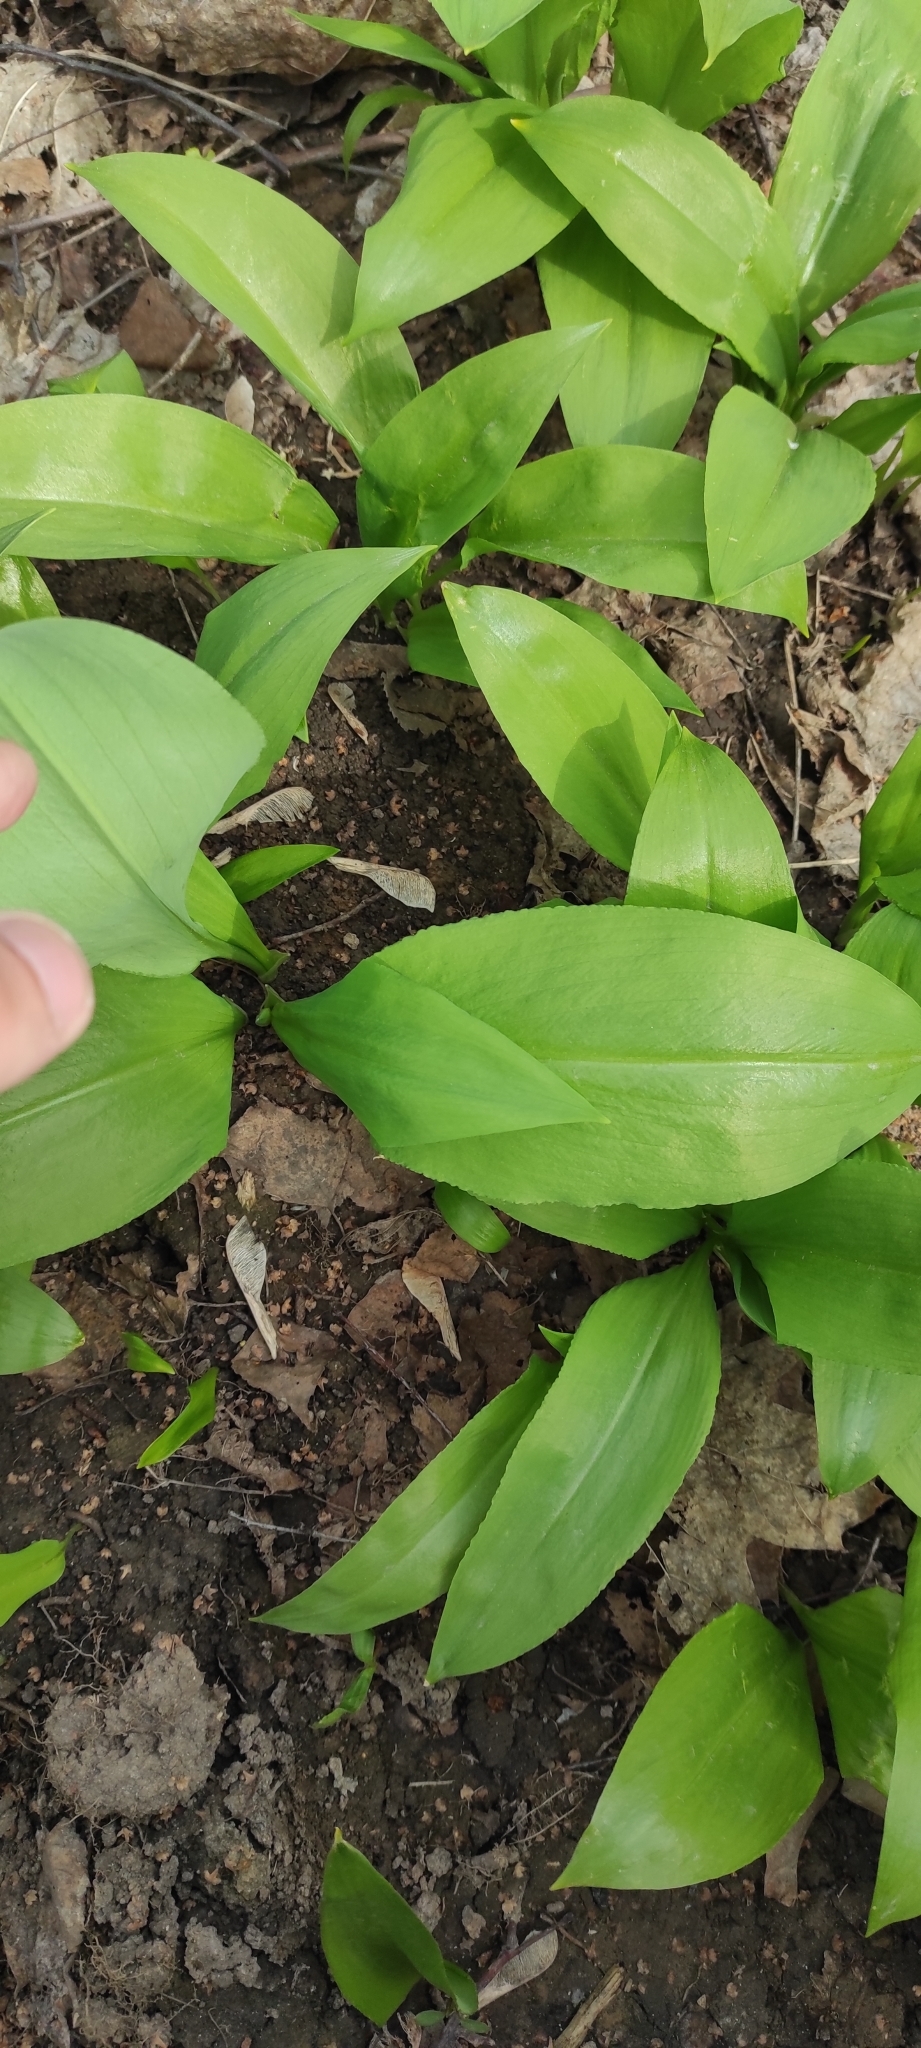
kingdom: Plantae
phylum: Tracheophyta
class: Liliopsida
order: Asparagales
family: Amaryllidaceae
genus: Allium
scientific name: Allium ursinum
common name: Ramsons
